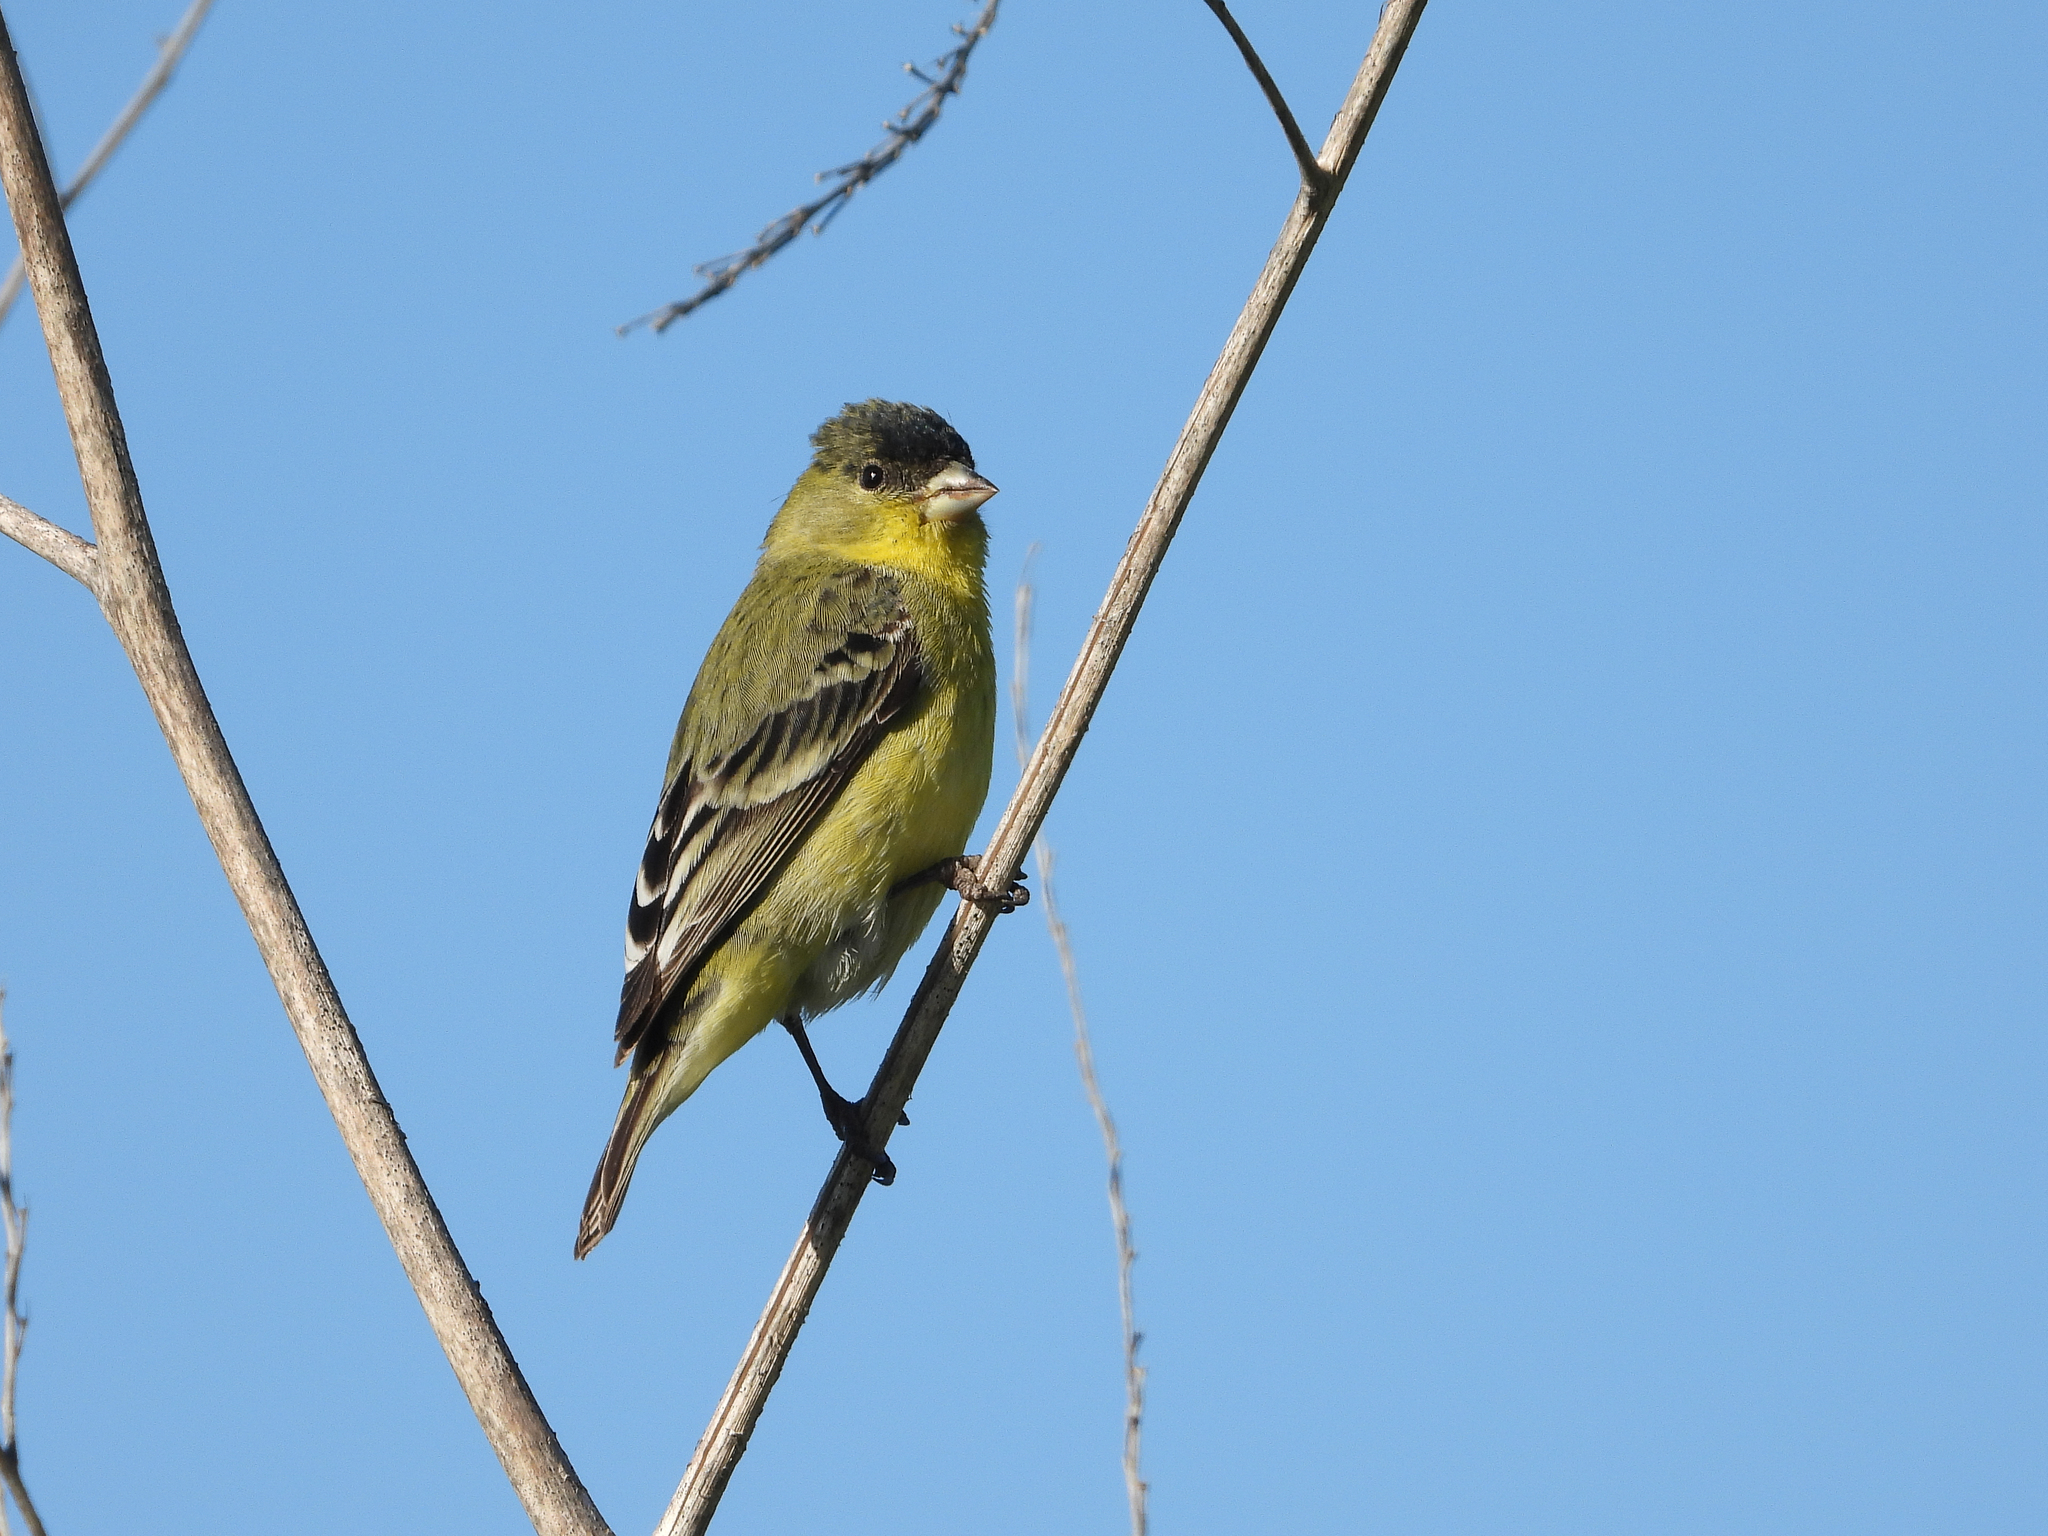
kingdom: Animalia
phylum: Chordata
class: Aves
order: Passeriformes
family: Fringillidae
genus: Spinus
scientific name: Spinus psaltria
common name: Lesser goldfinch
